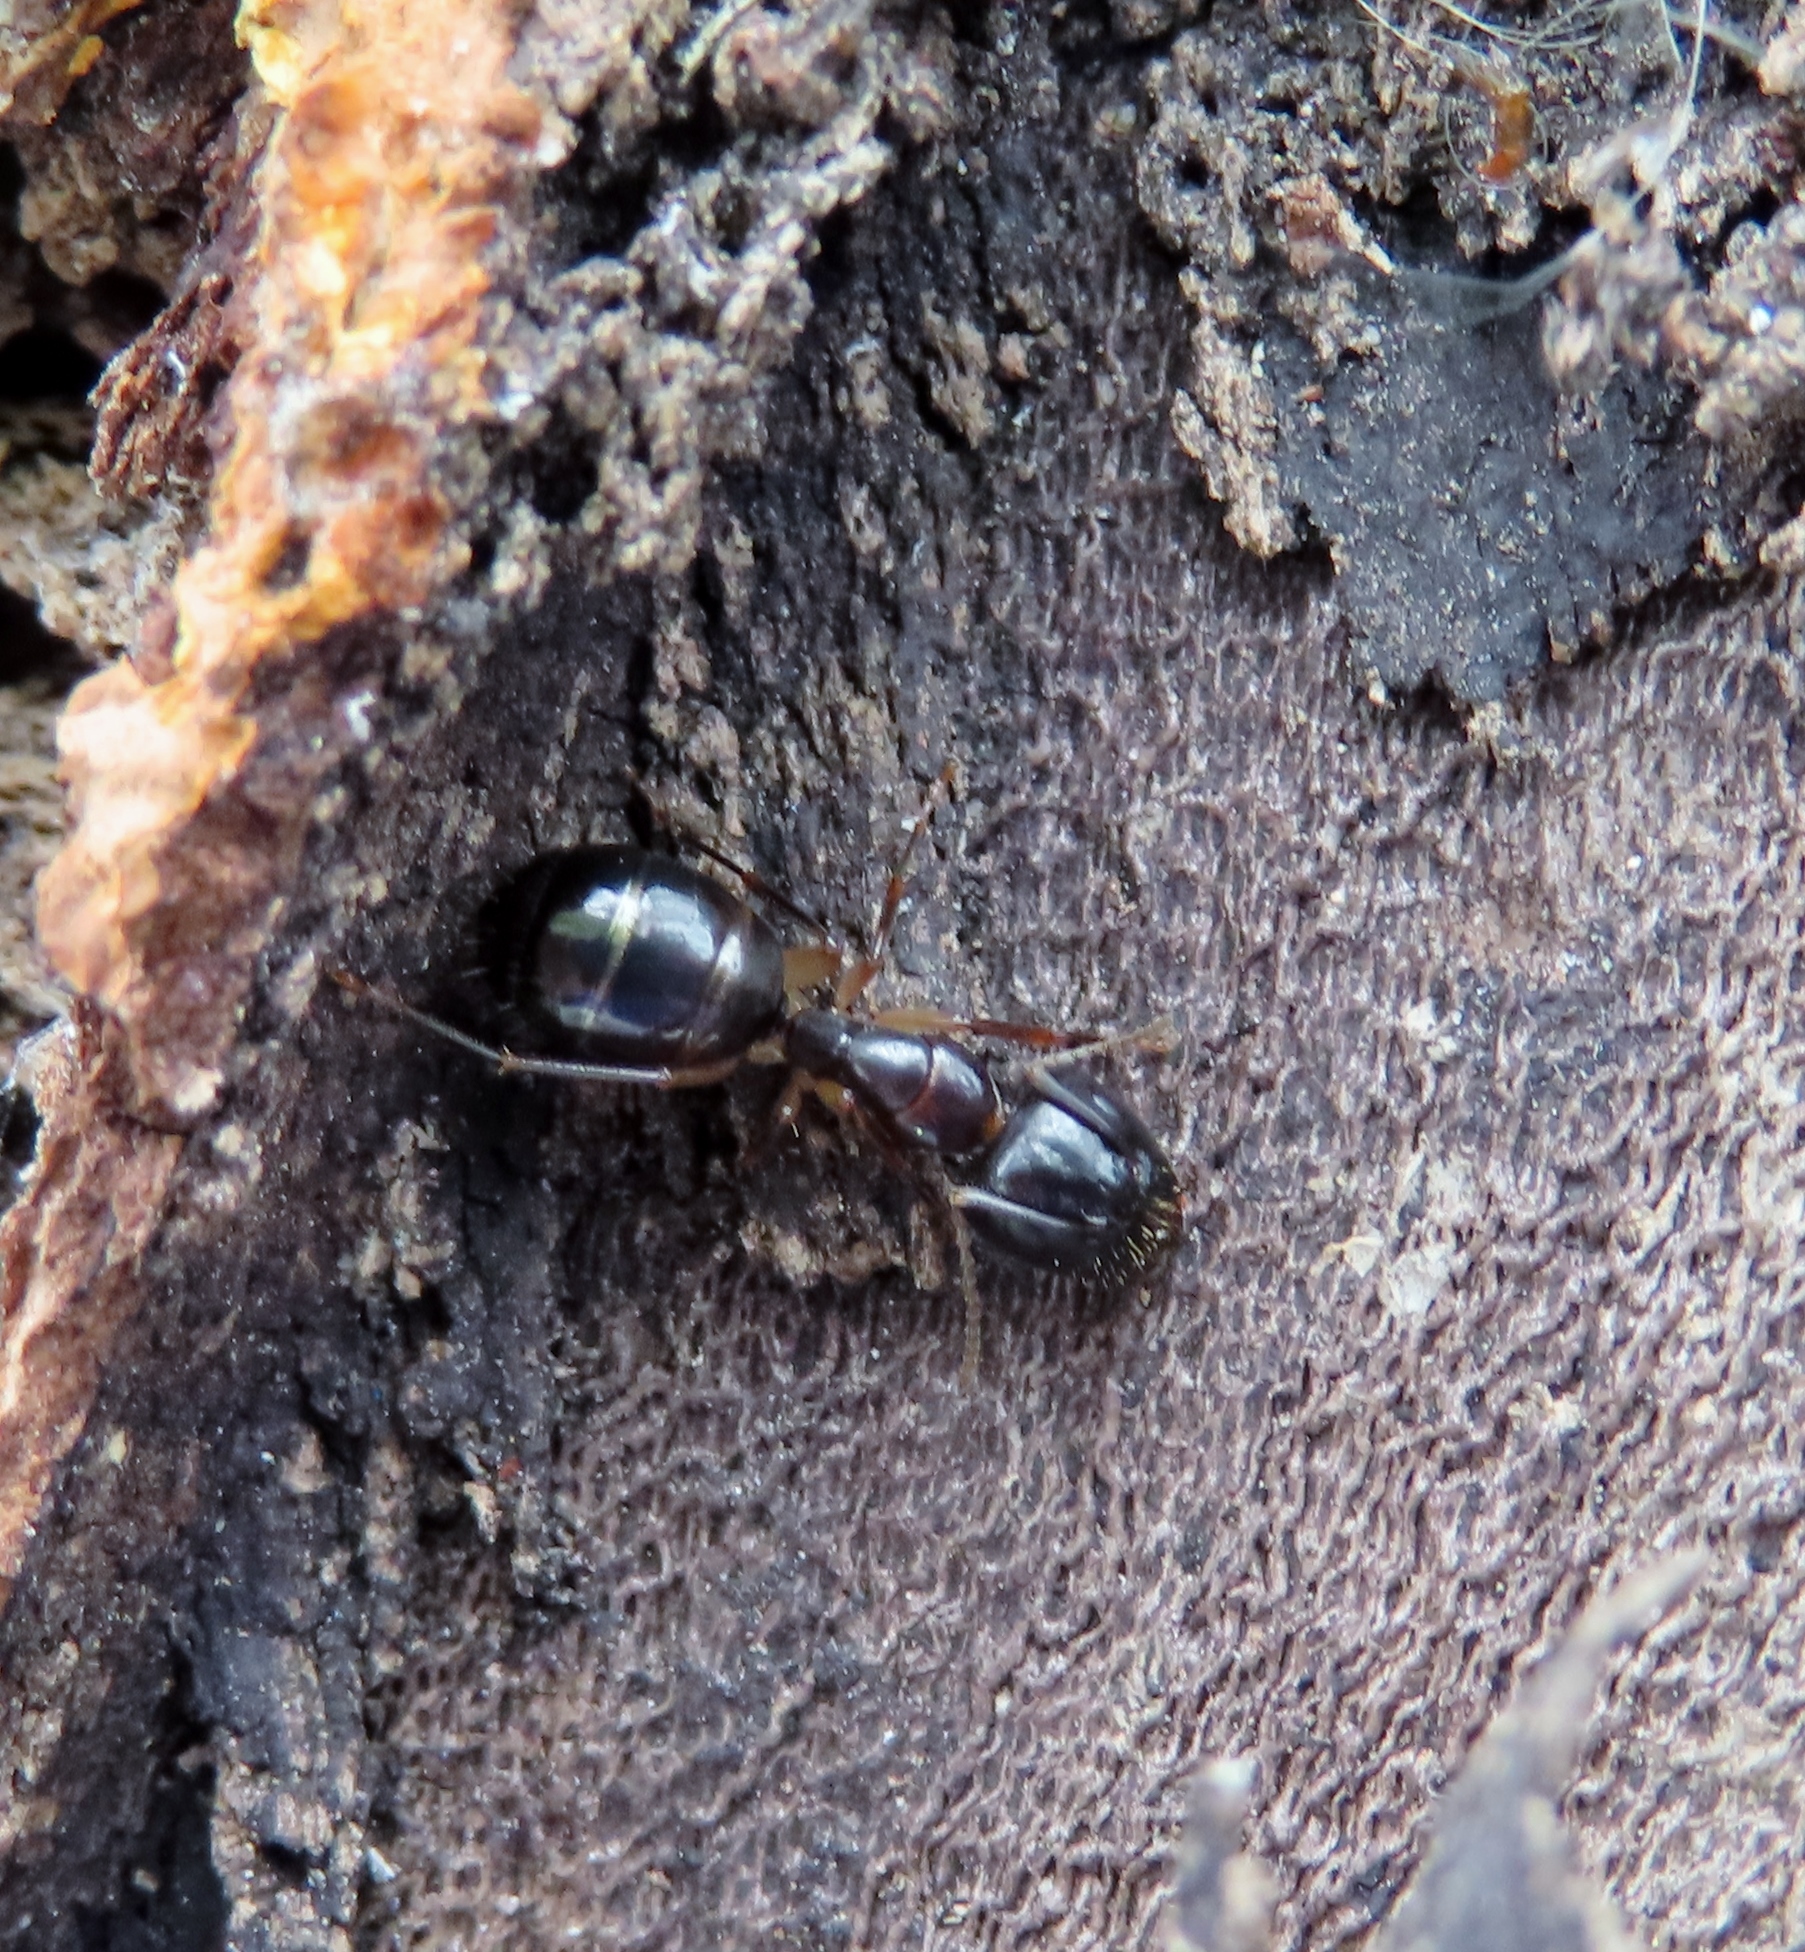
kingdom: Animalia
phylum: Arthropoda
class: Insecta
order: Hymenoptera
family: Formicidae
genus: Camponotus
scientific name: Camponotus bertolonii
